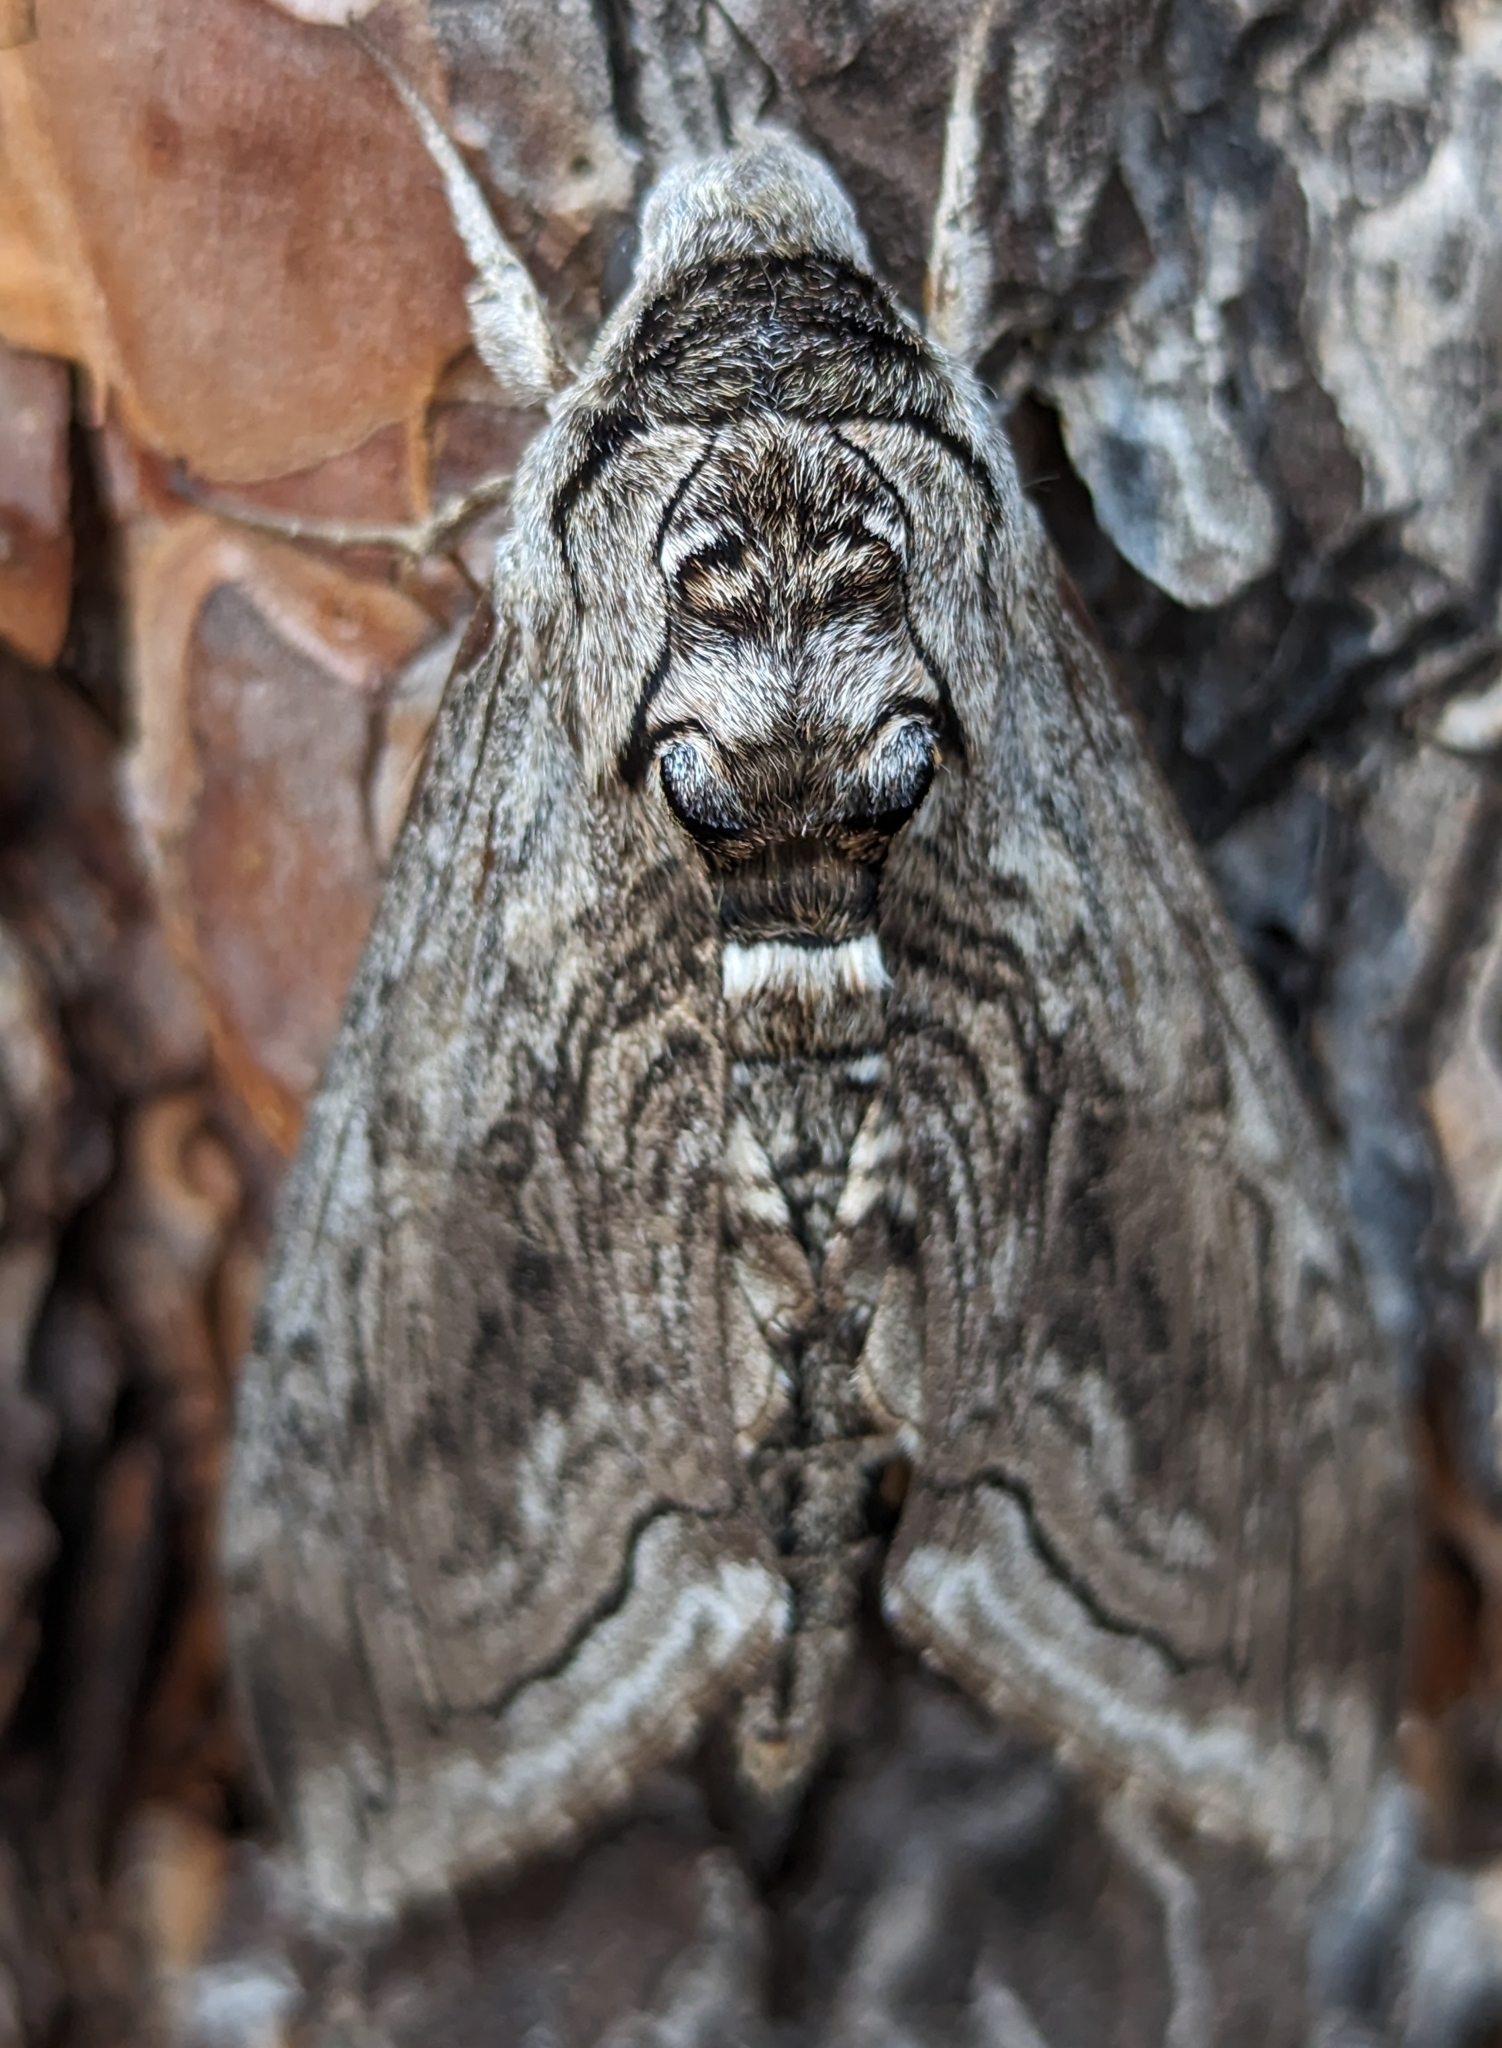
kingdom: Animalia
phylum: Arthropoda
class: Insecta
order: Lepidoptera
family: Sphingidae
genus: Manduca
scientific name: Manduca quinquemaculatus
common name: Five-spotted hawk-moth
